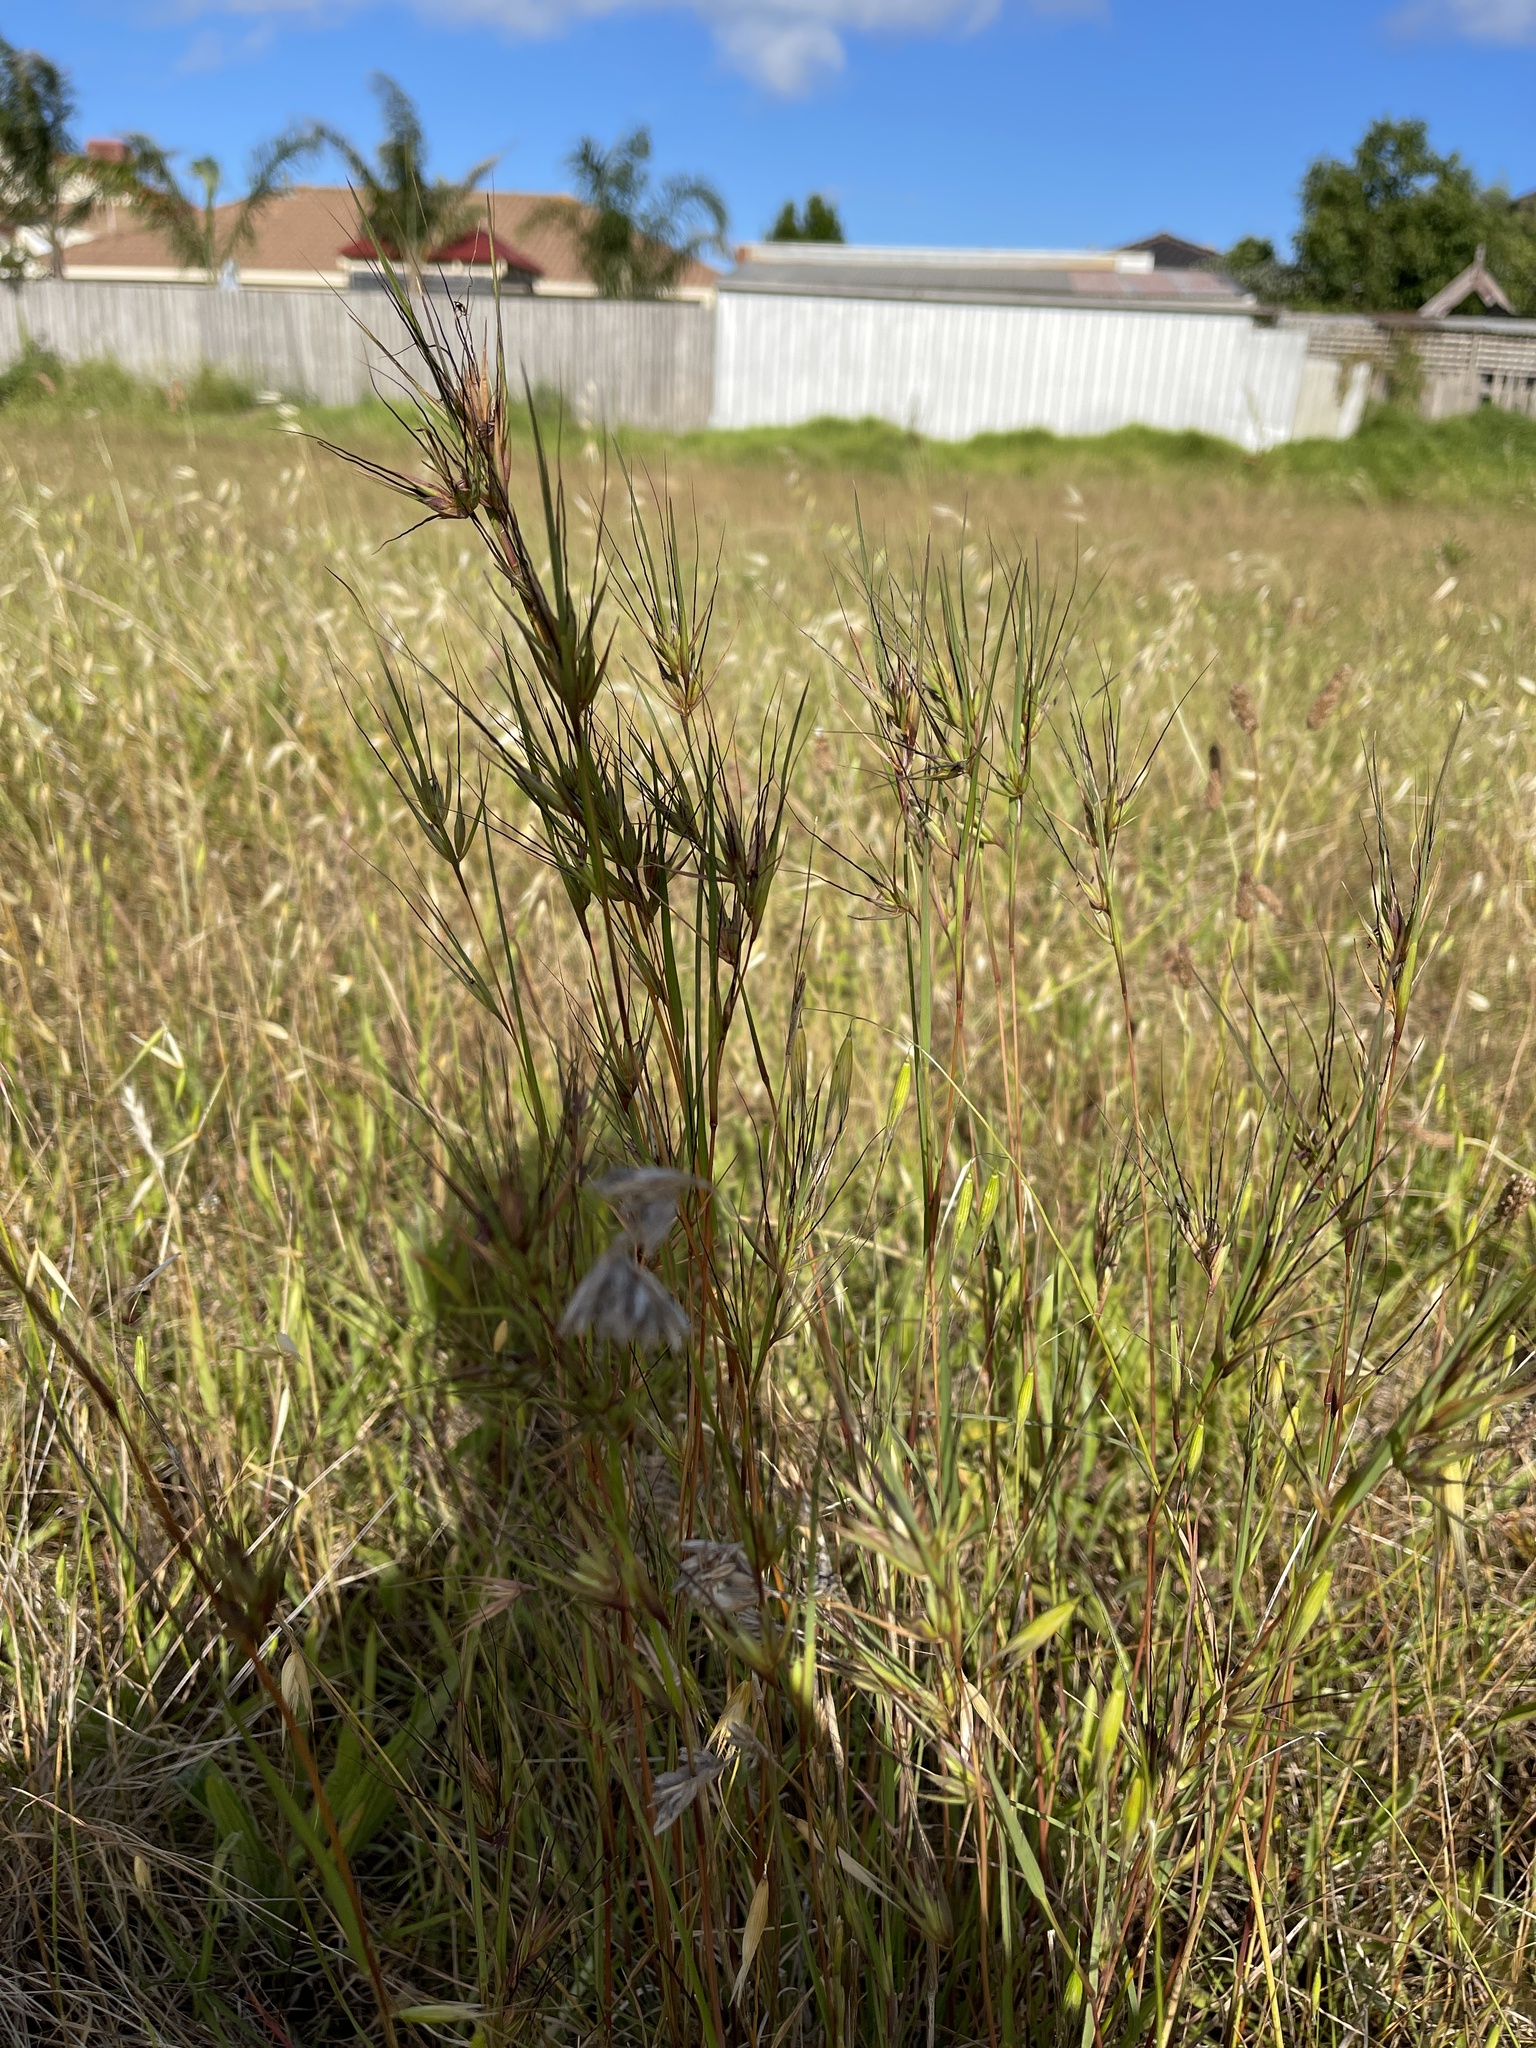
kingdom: Plantae
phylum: Tracheophyta
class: Liliopsida
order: Poales
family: Poaceae
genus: Themeda
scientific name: Themeda triandra
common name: Kangaroo grass
